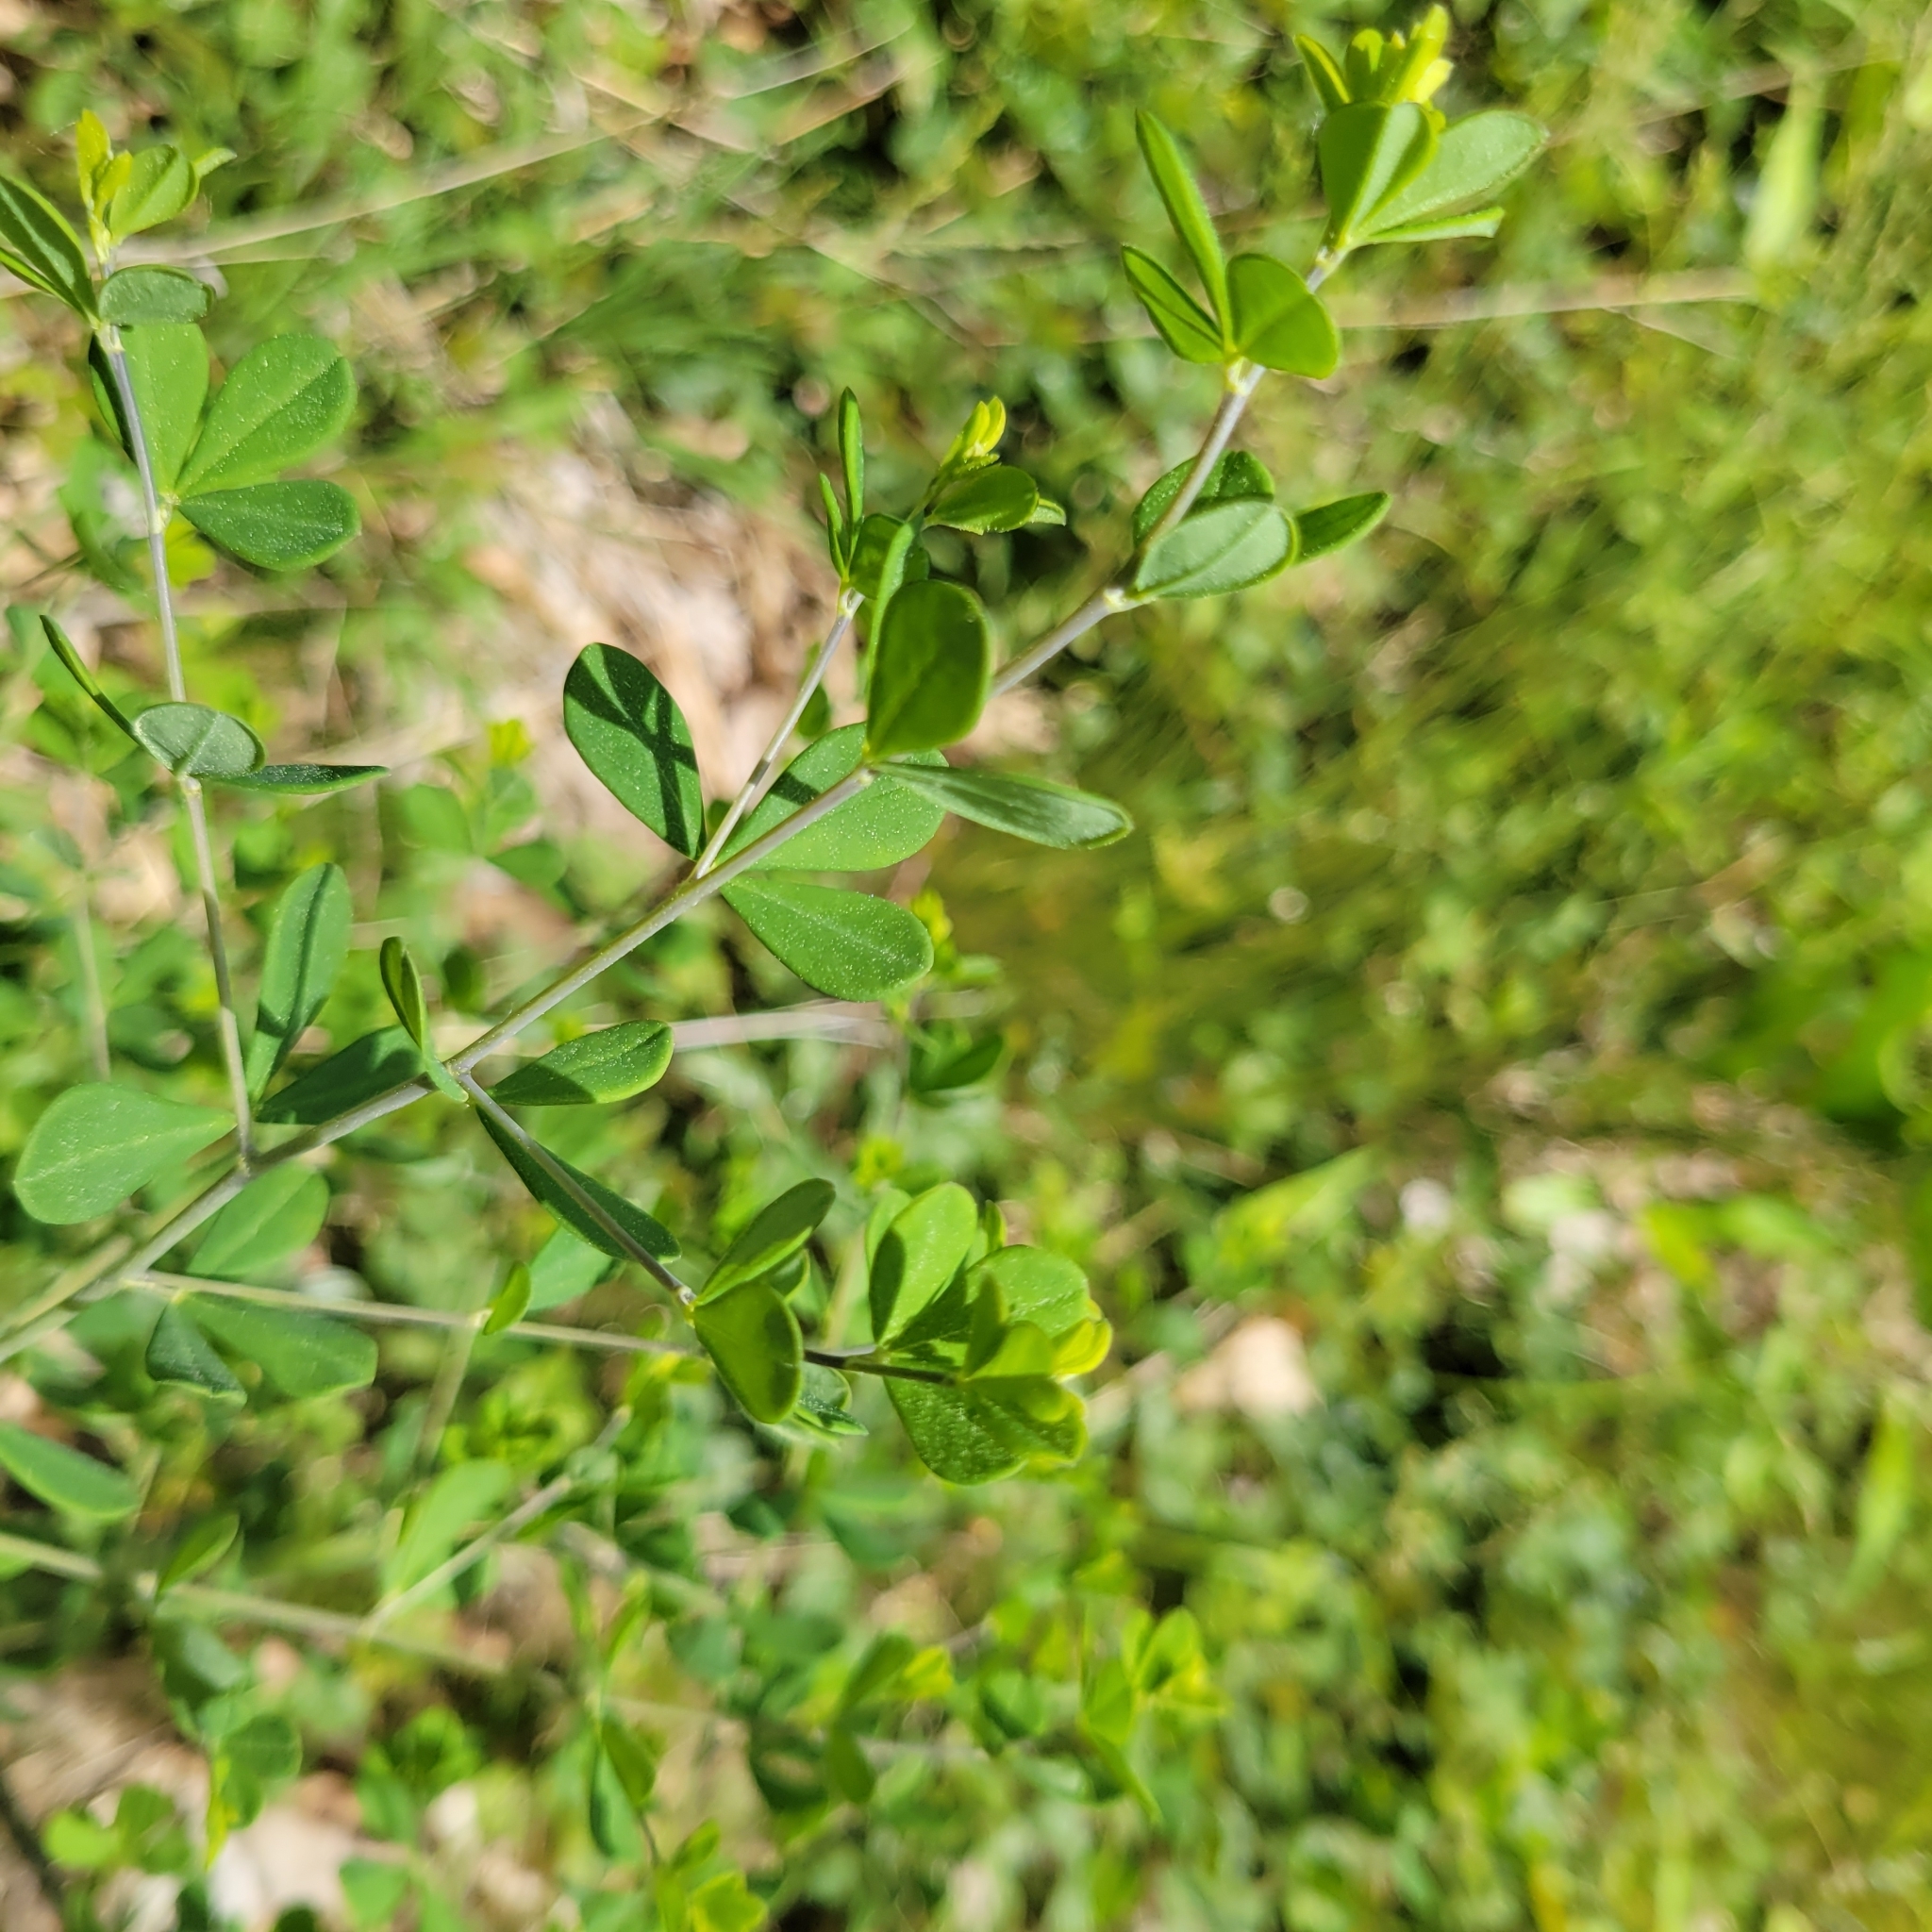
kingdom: Plantae
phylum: Tracheophyta
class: Magnoliopsida
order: Fabales
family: Fabaceae
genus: Baptisia
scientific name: Baptisia tinctoria
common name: Wild indigo
